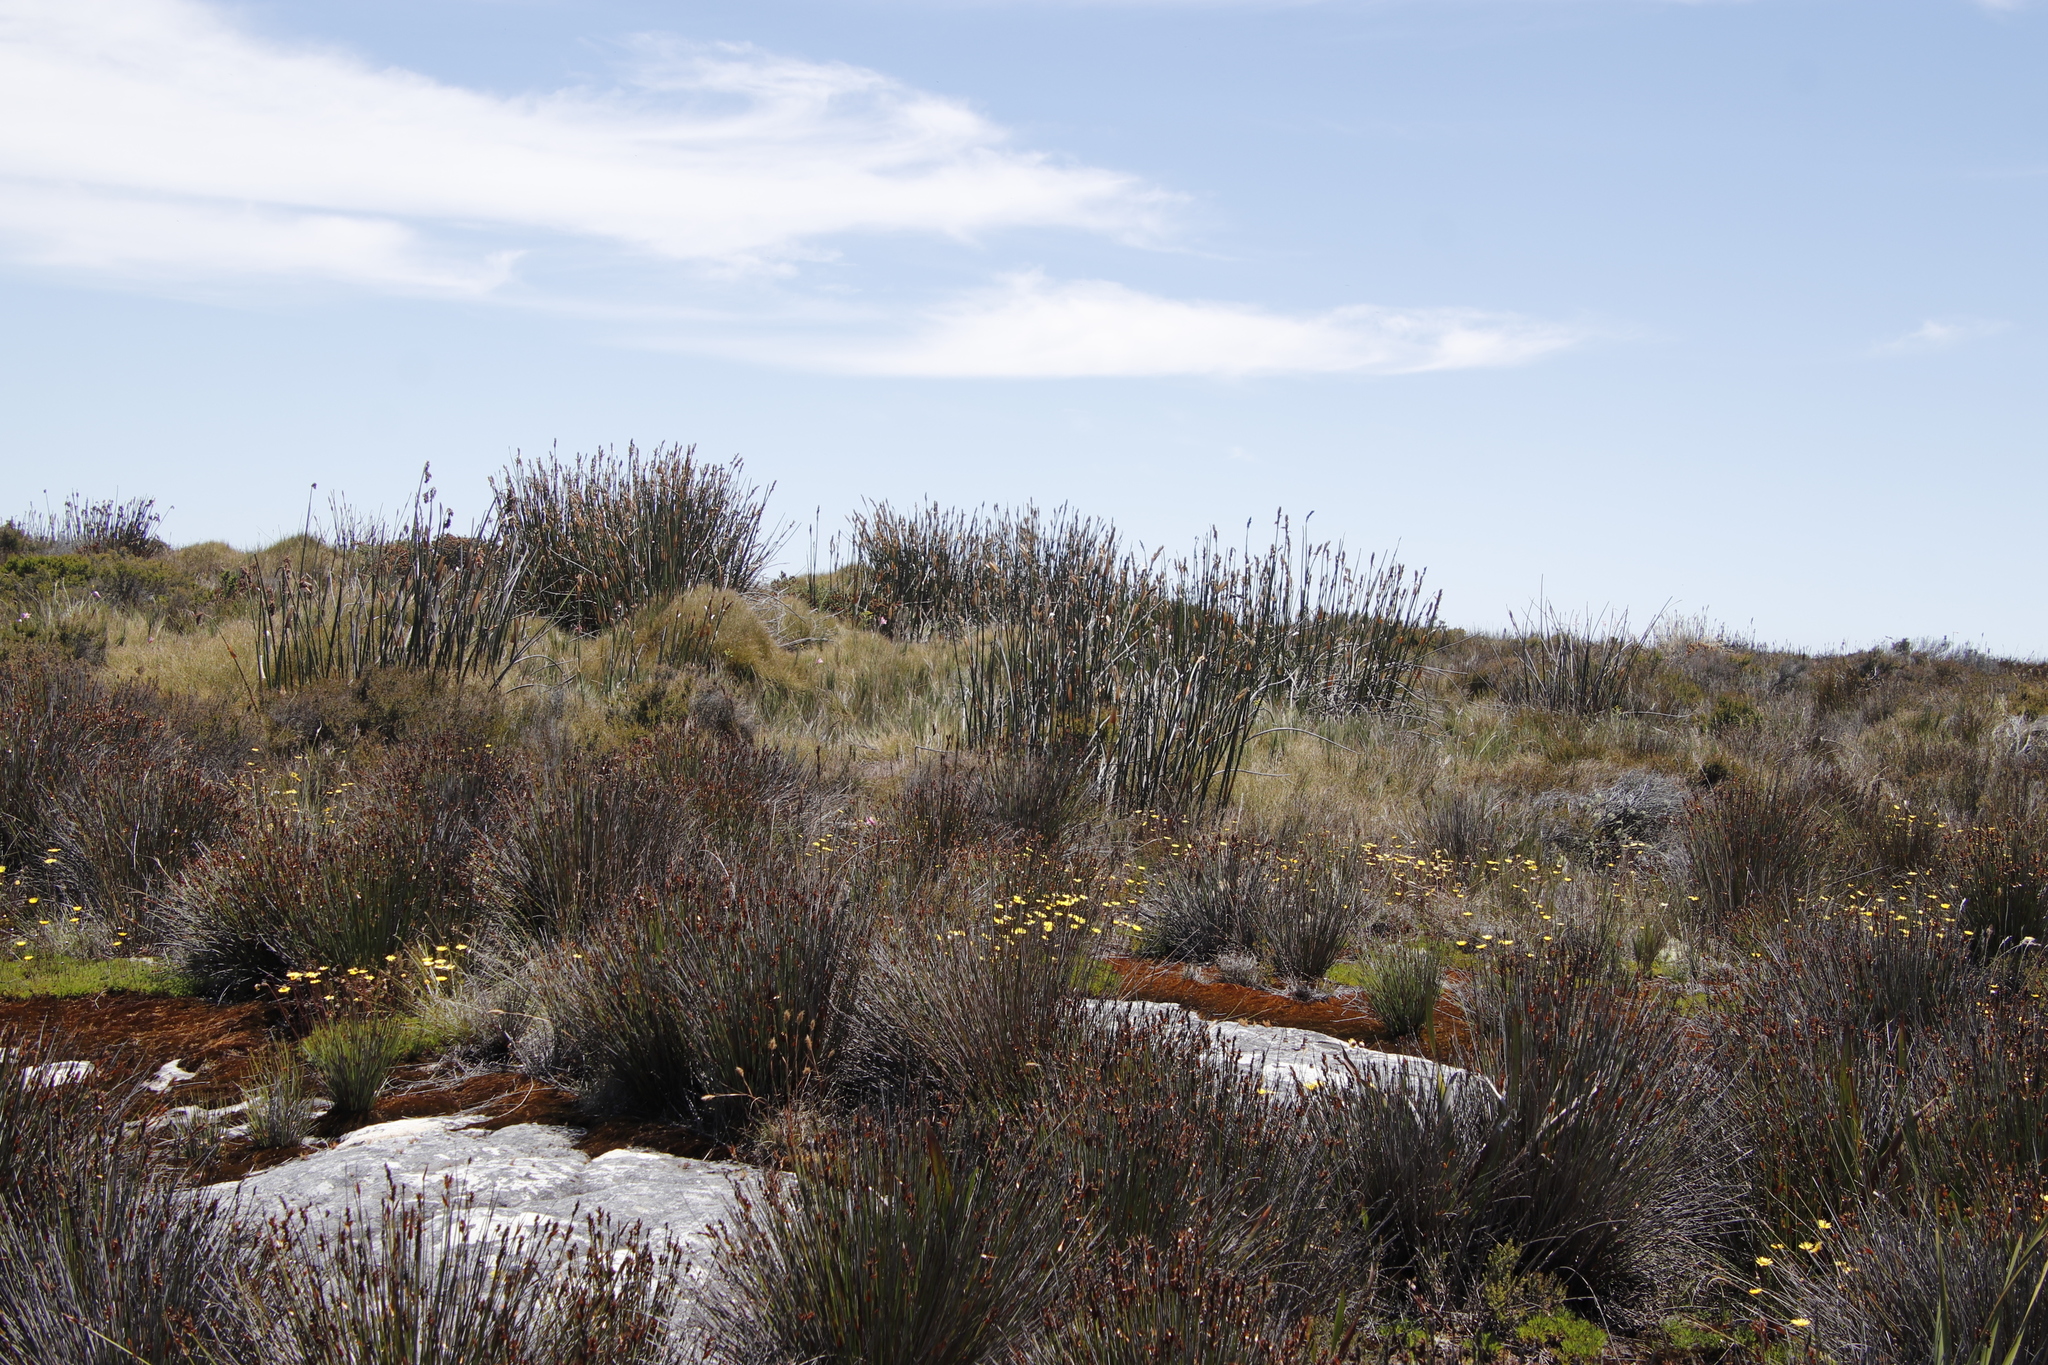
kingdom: Plantae
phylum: Tracheophyta
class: Magnoliopsida
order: Asterales
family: Asteraceae
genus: Ursinia
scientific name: Ursinia nudicaulis
